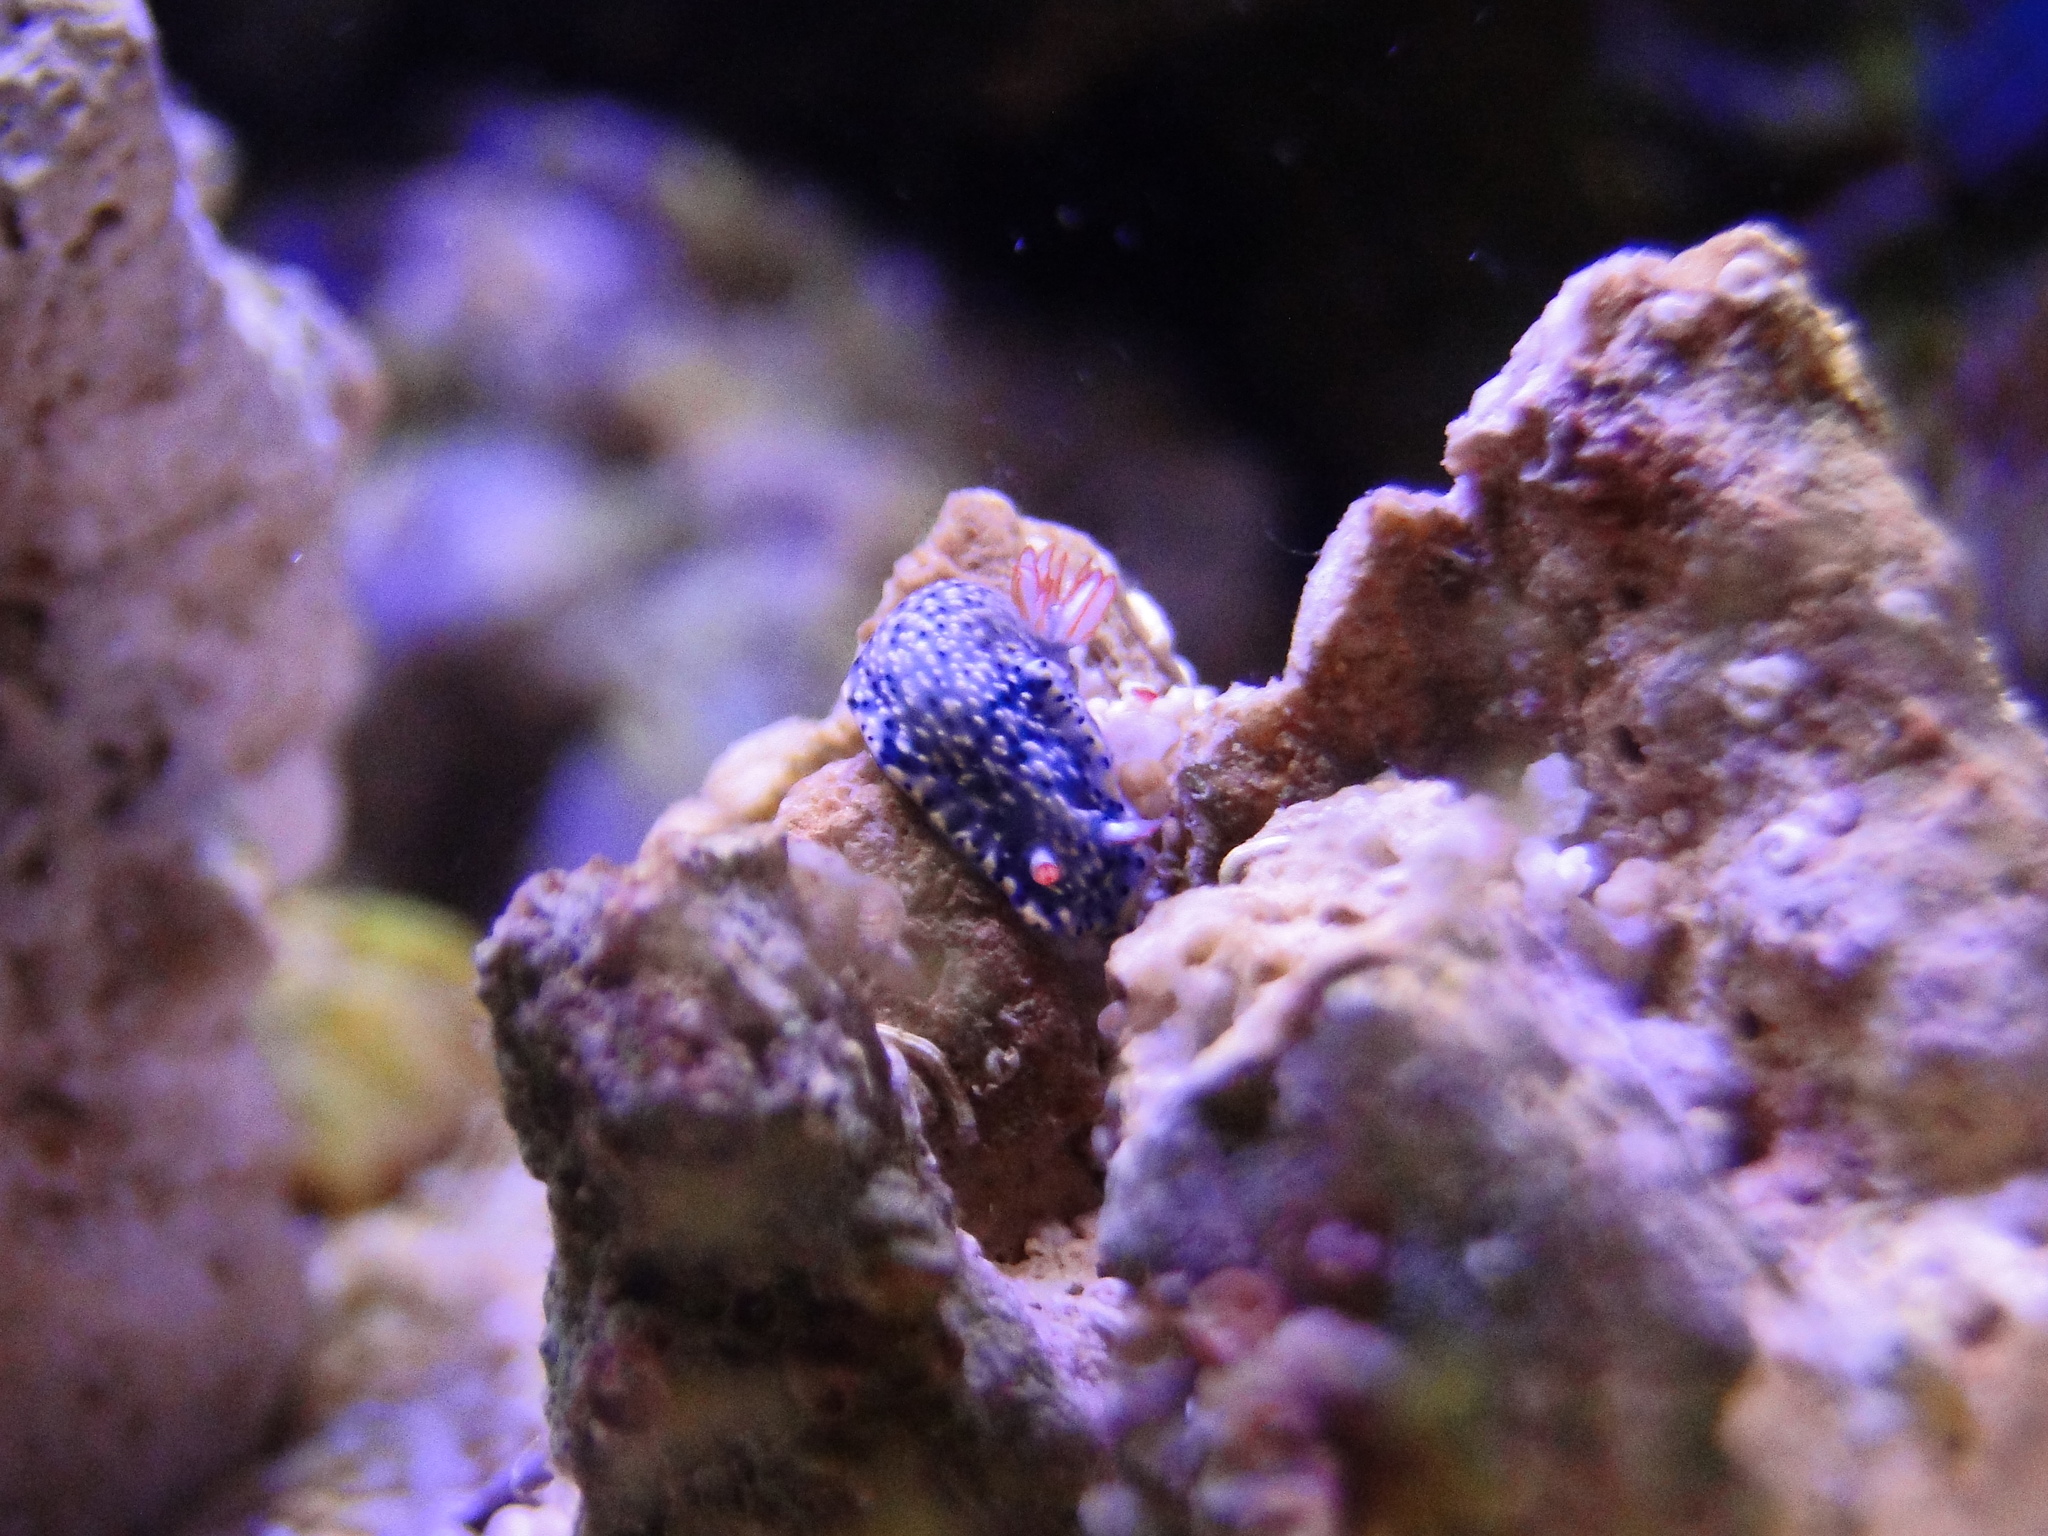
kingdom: Animalia
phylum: Mollusca
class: Gastropoda
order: Nudibranchia
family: Chromodorididae
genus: Hypselodoris
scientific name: Hypselodoris infucata
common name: Mottled dorid
